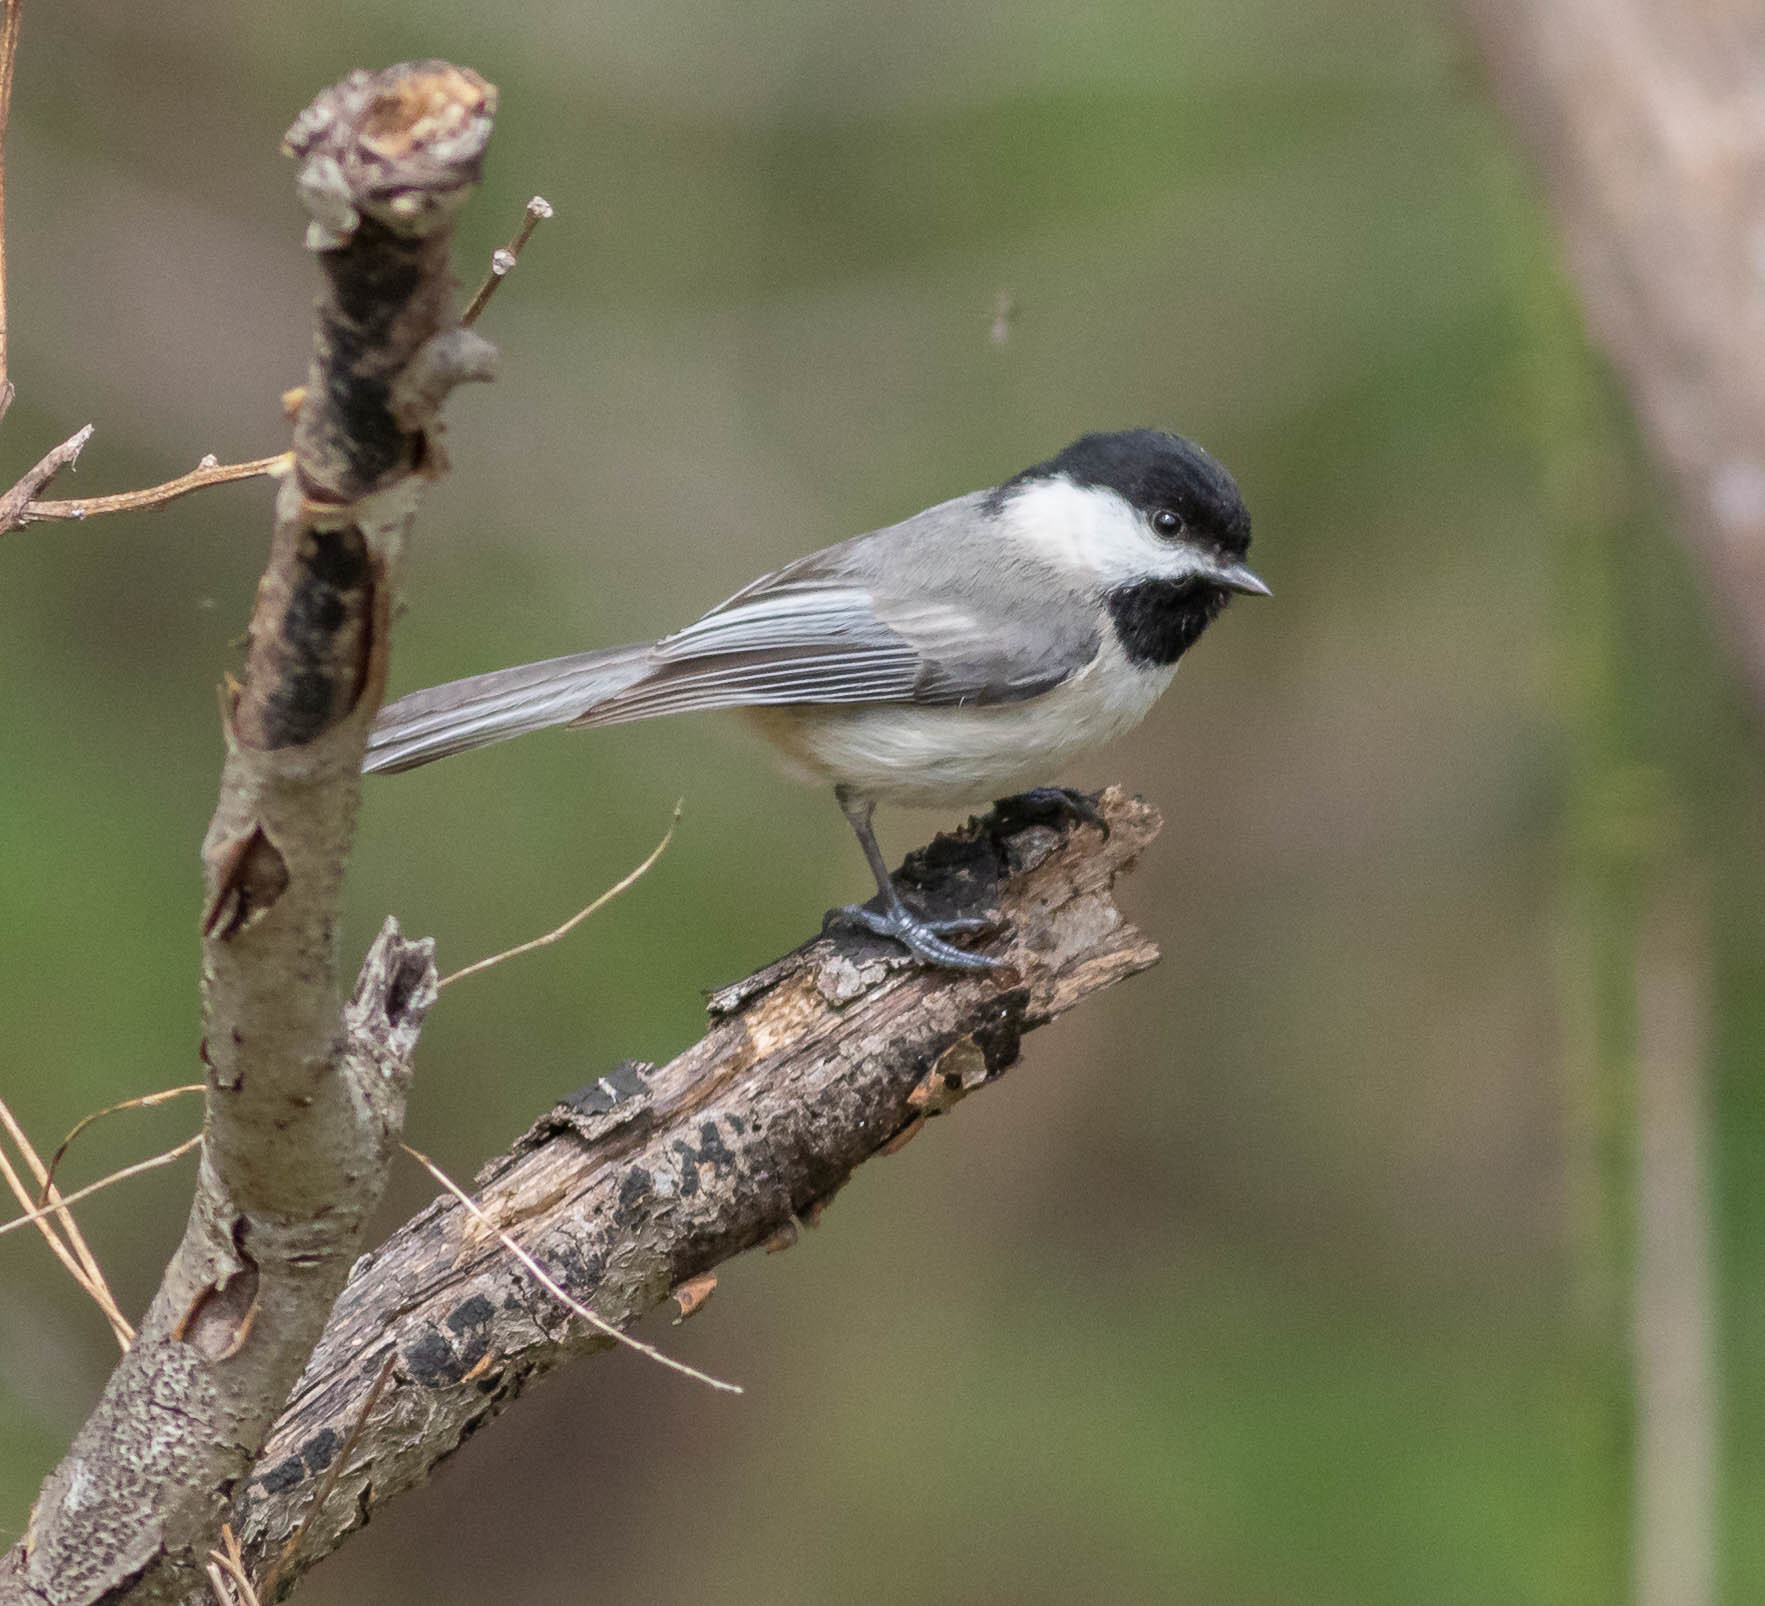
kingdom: Animalia
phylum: Chordata
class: Aves
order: Passeriformes
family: Paridae
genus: Poecile
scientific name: Poecile carolinensis
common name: Carolina chickadee
